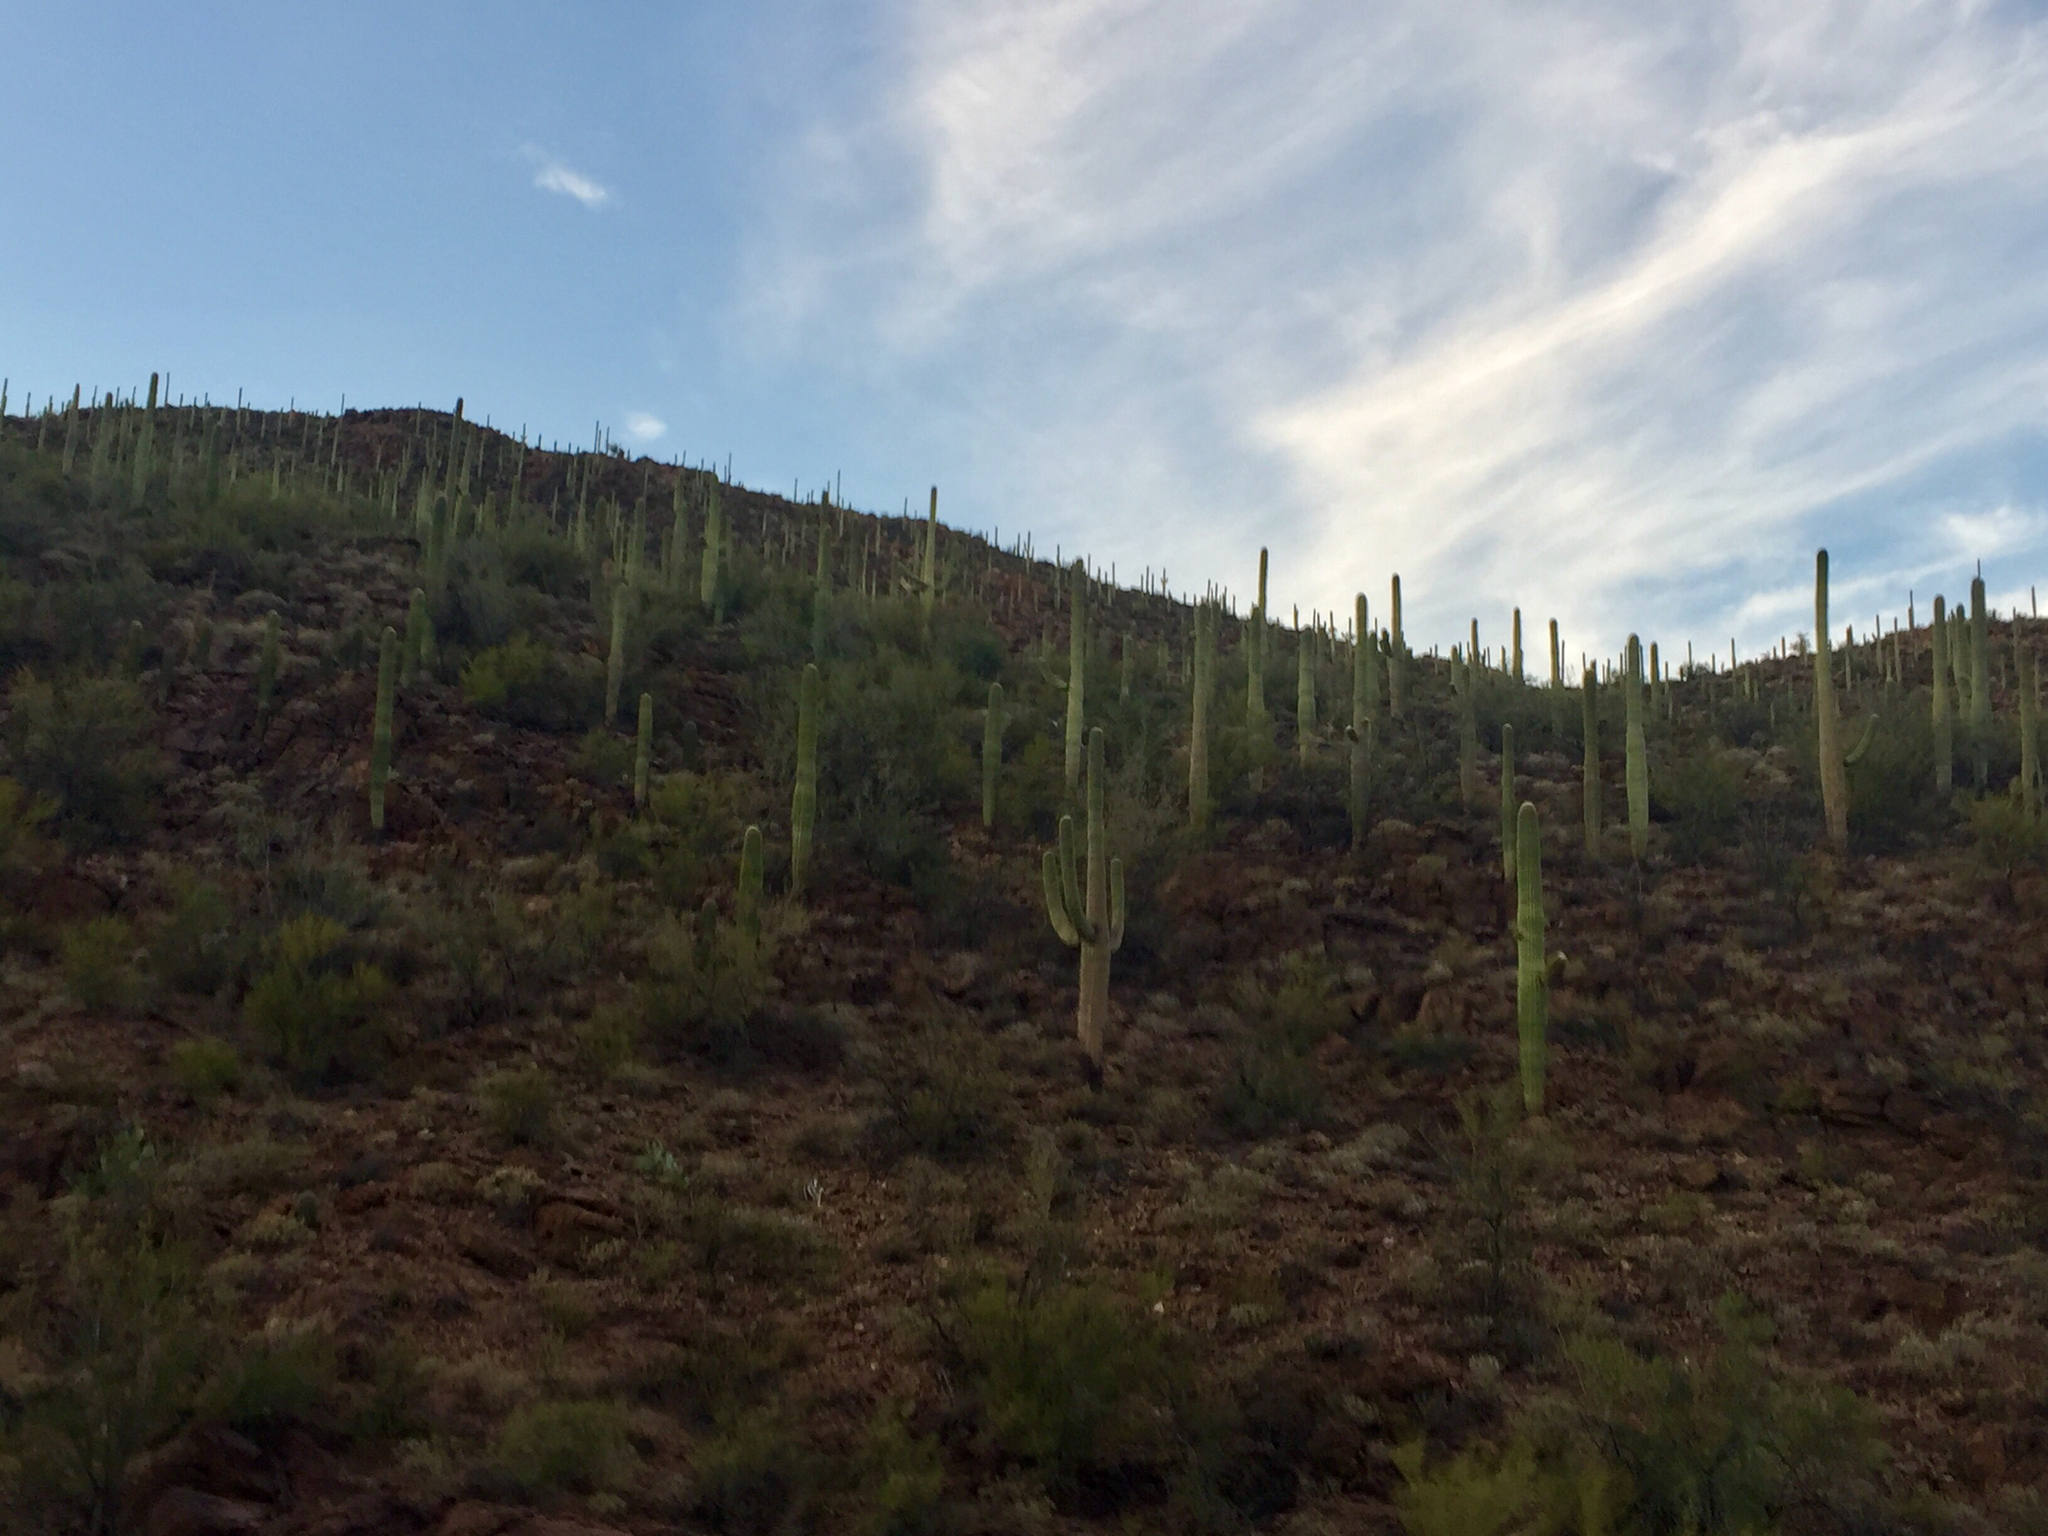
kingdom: Plantae
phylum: Tracheophyta
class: Magnoliopsida
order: Caryophyllales
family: Cactaceae
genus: Carnegiea
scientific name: Carnegiea gigantea
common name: Saguaro
